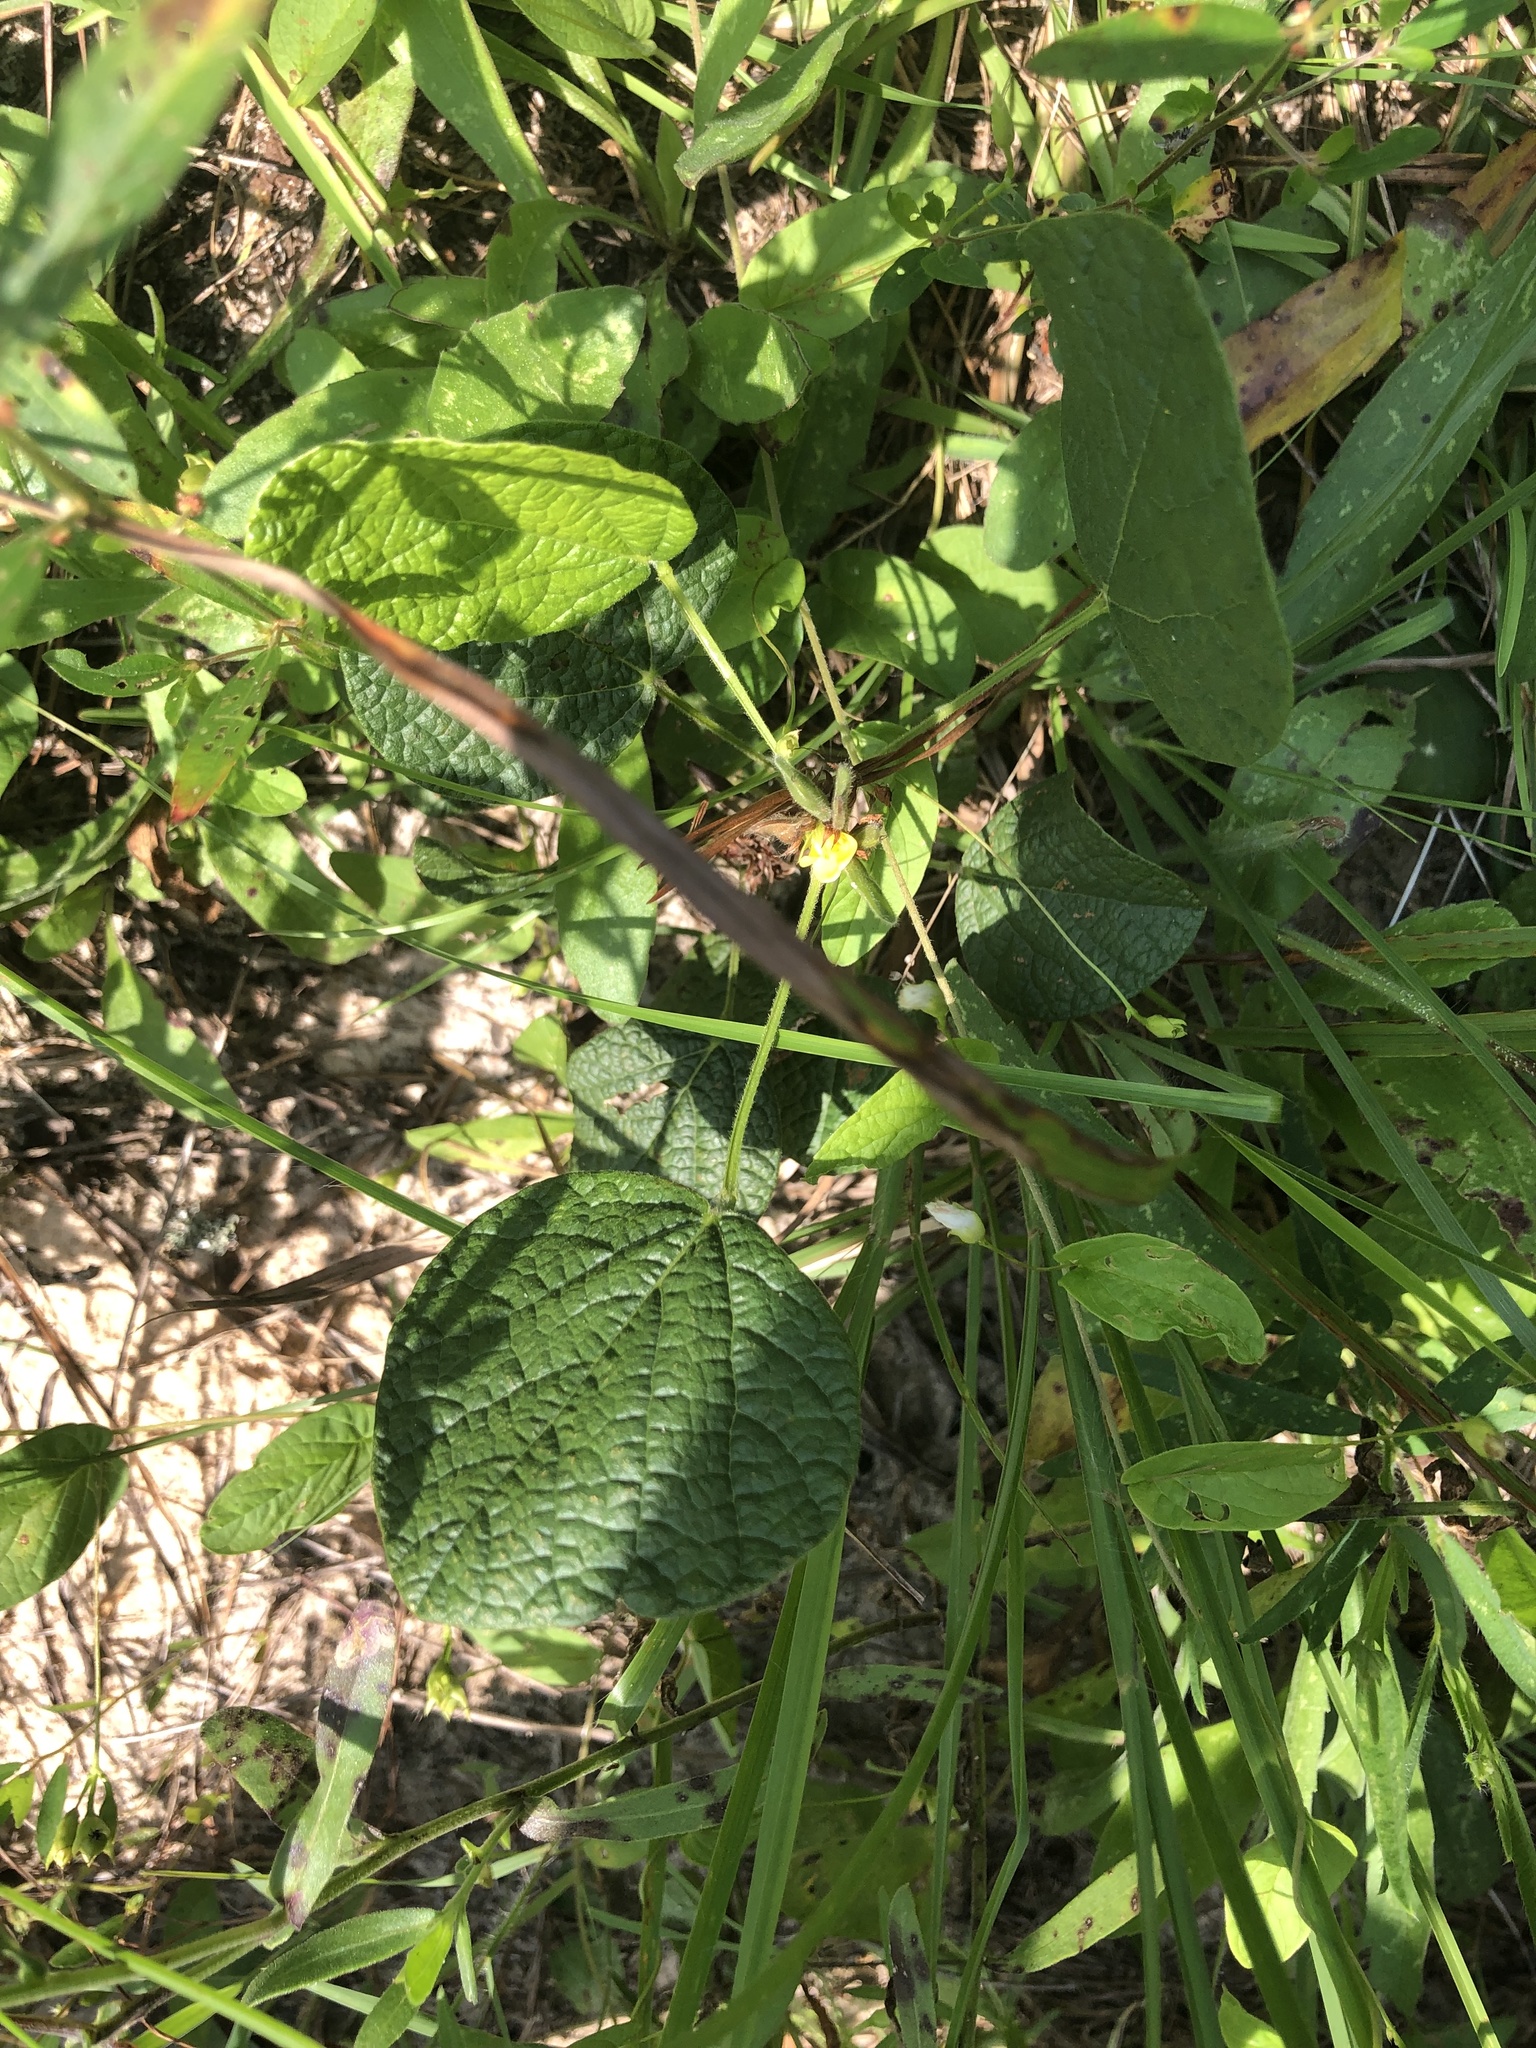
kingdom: Plantae
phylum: Tracheophyta
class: Magnoliopsida
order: Fabales
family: Fabaceae
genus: Rhynchosia
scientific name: Rhynchosia reniformis
